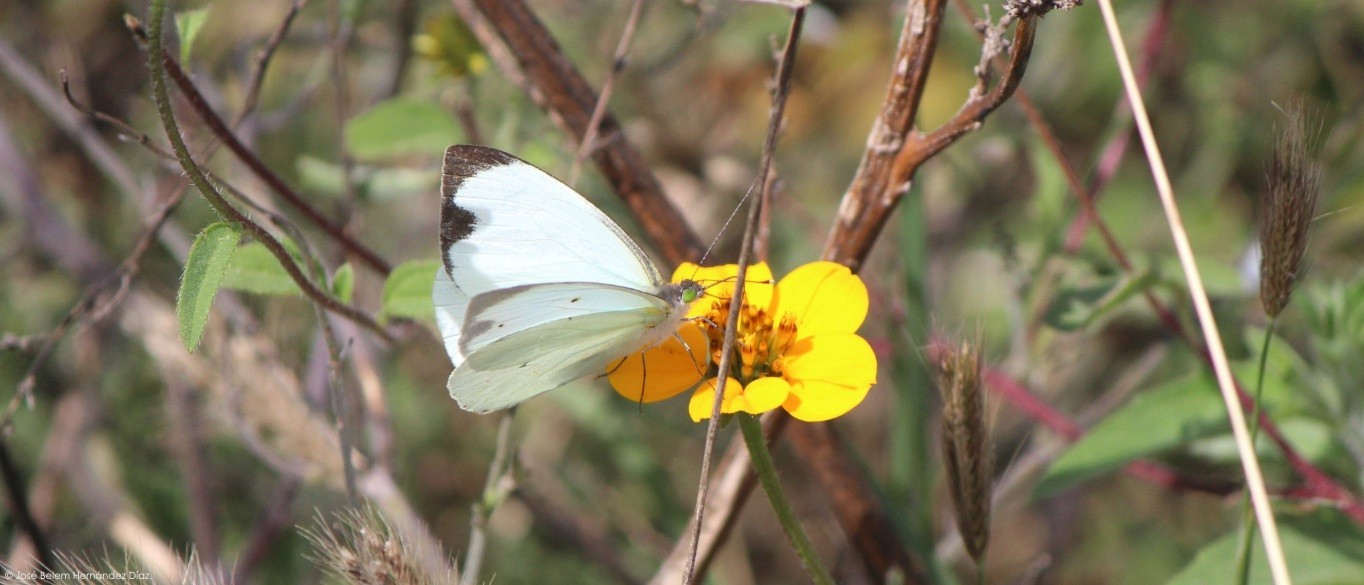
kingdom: Animalia
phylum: Arthropoda
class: Insecta
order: Lepidoptera
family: Pieridae
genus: Leptophobia
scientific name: Leptophobia aripa
